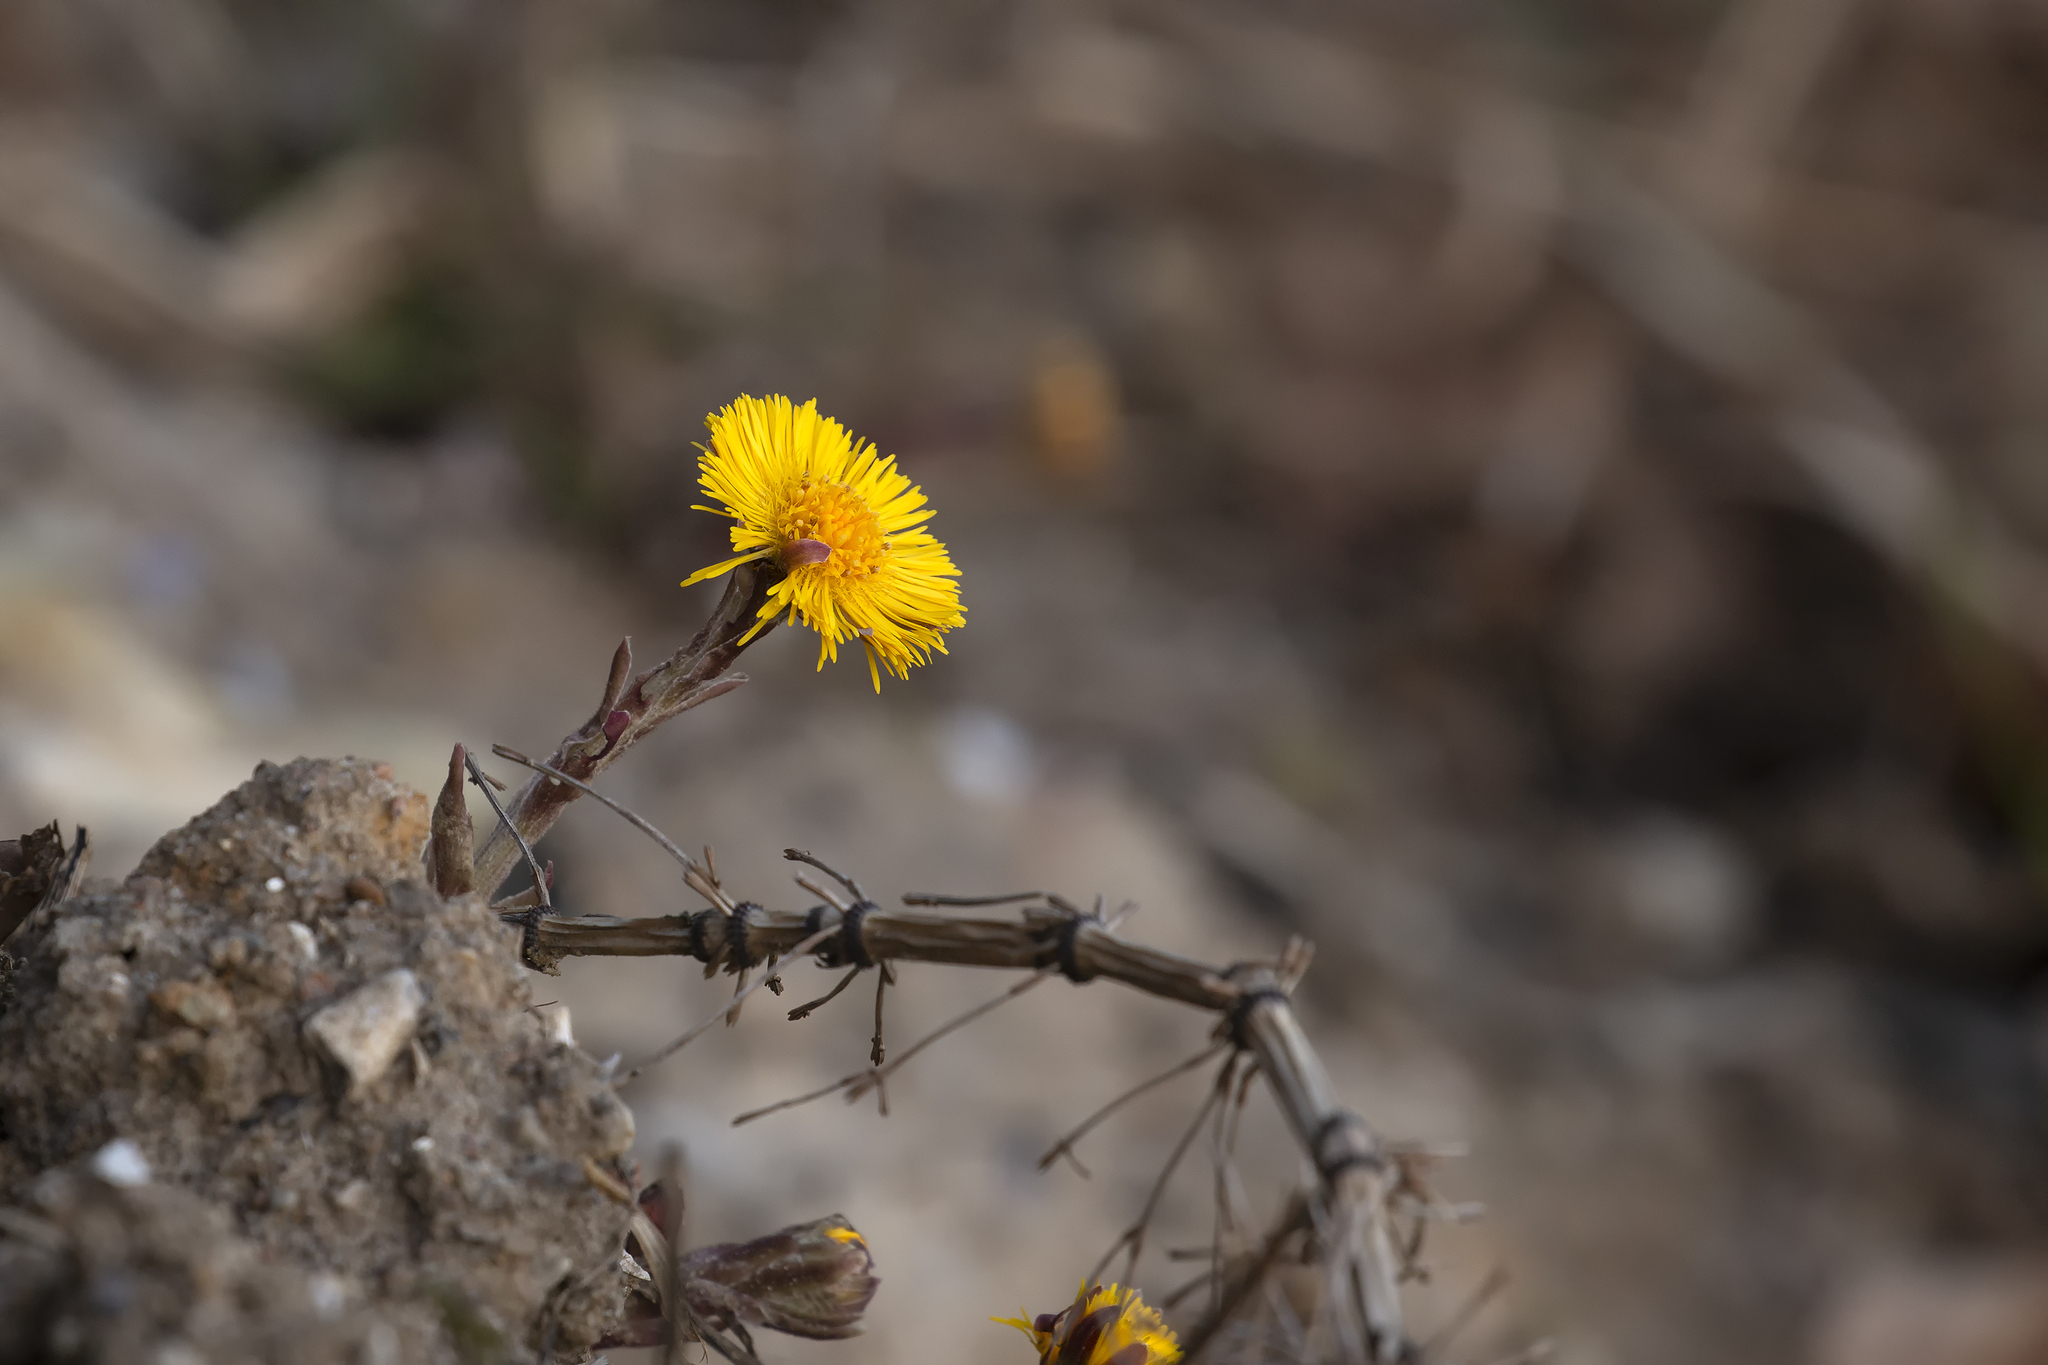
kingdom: Plantae
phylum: Tracheophyta
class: Magnoliopsida
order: Asterales
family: Asteraceae
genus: Tussilago
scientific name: Tussilago farfara
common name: Coltsfoot
